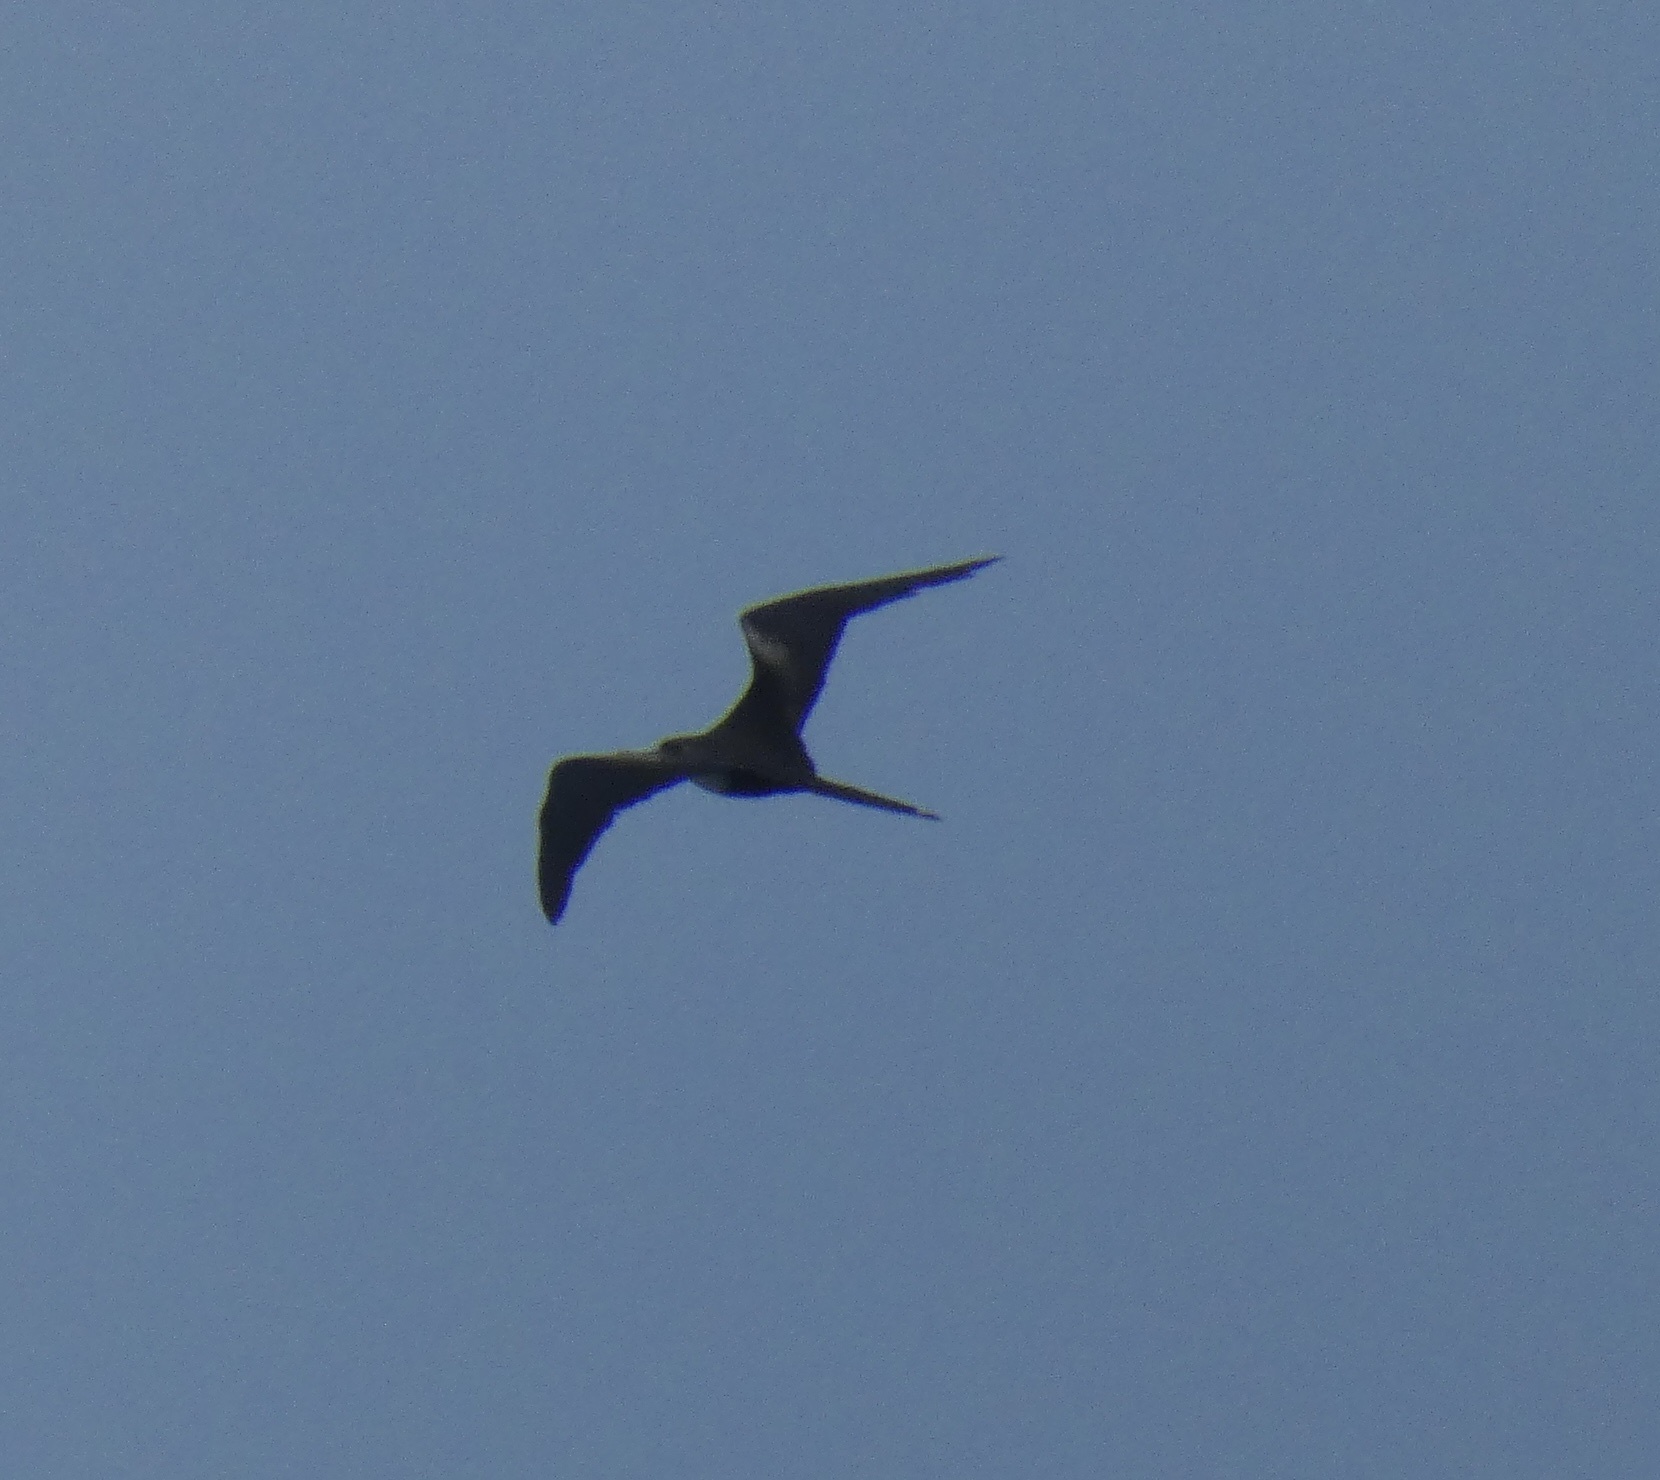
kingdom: Animalia
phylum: Chordata
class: Aves
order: Suliformes
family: Fregatidae
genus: Fregata
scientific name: Fregata magnificens
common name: Magnificent frigatebird
